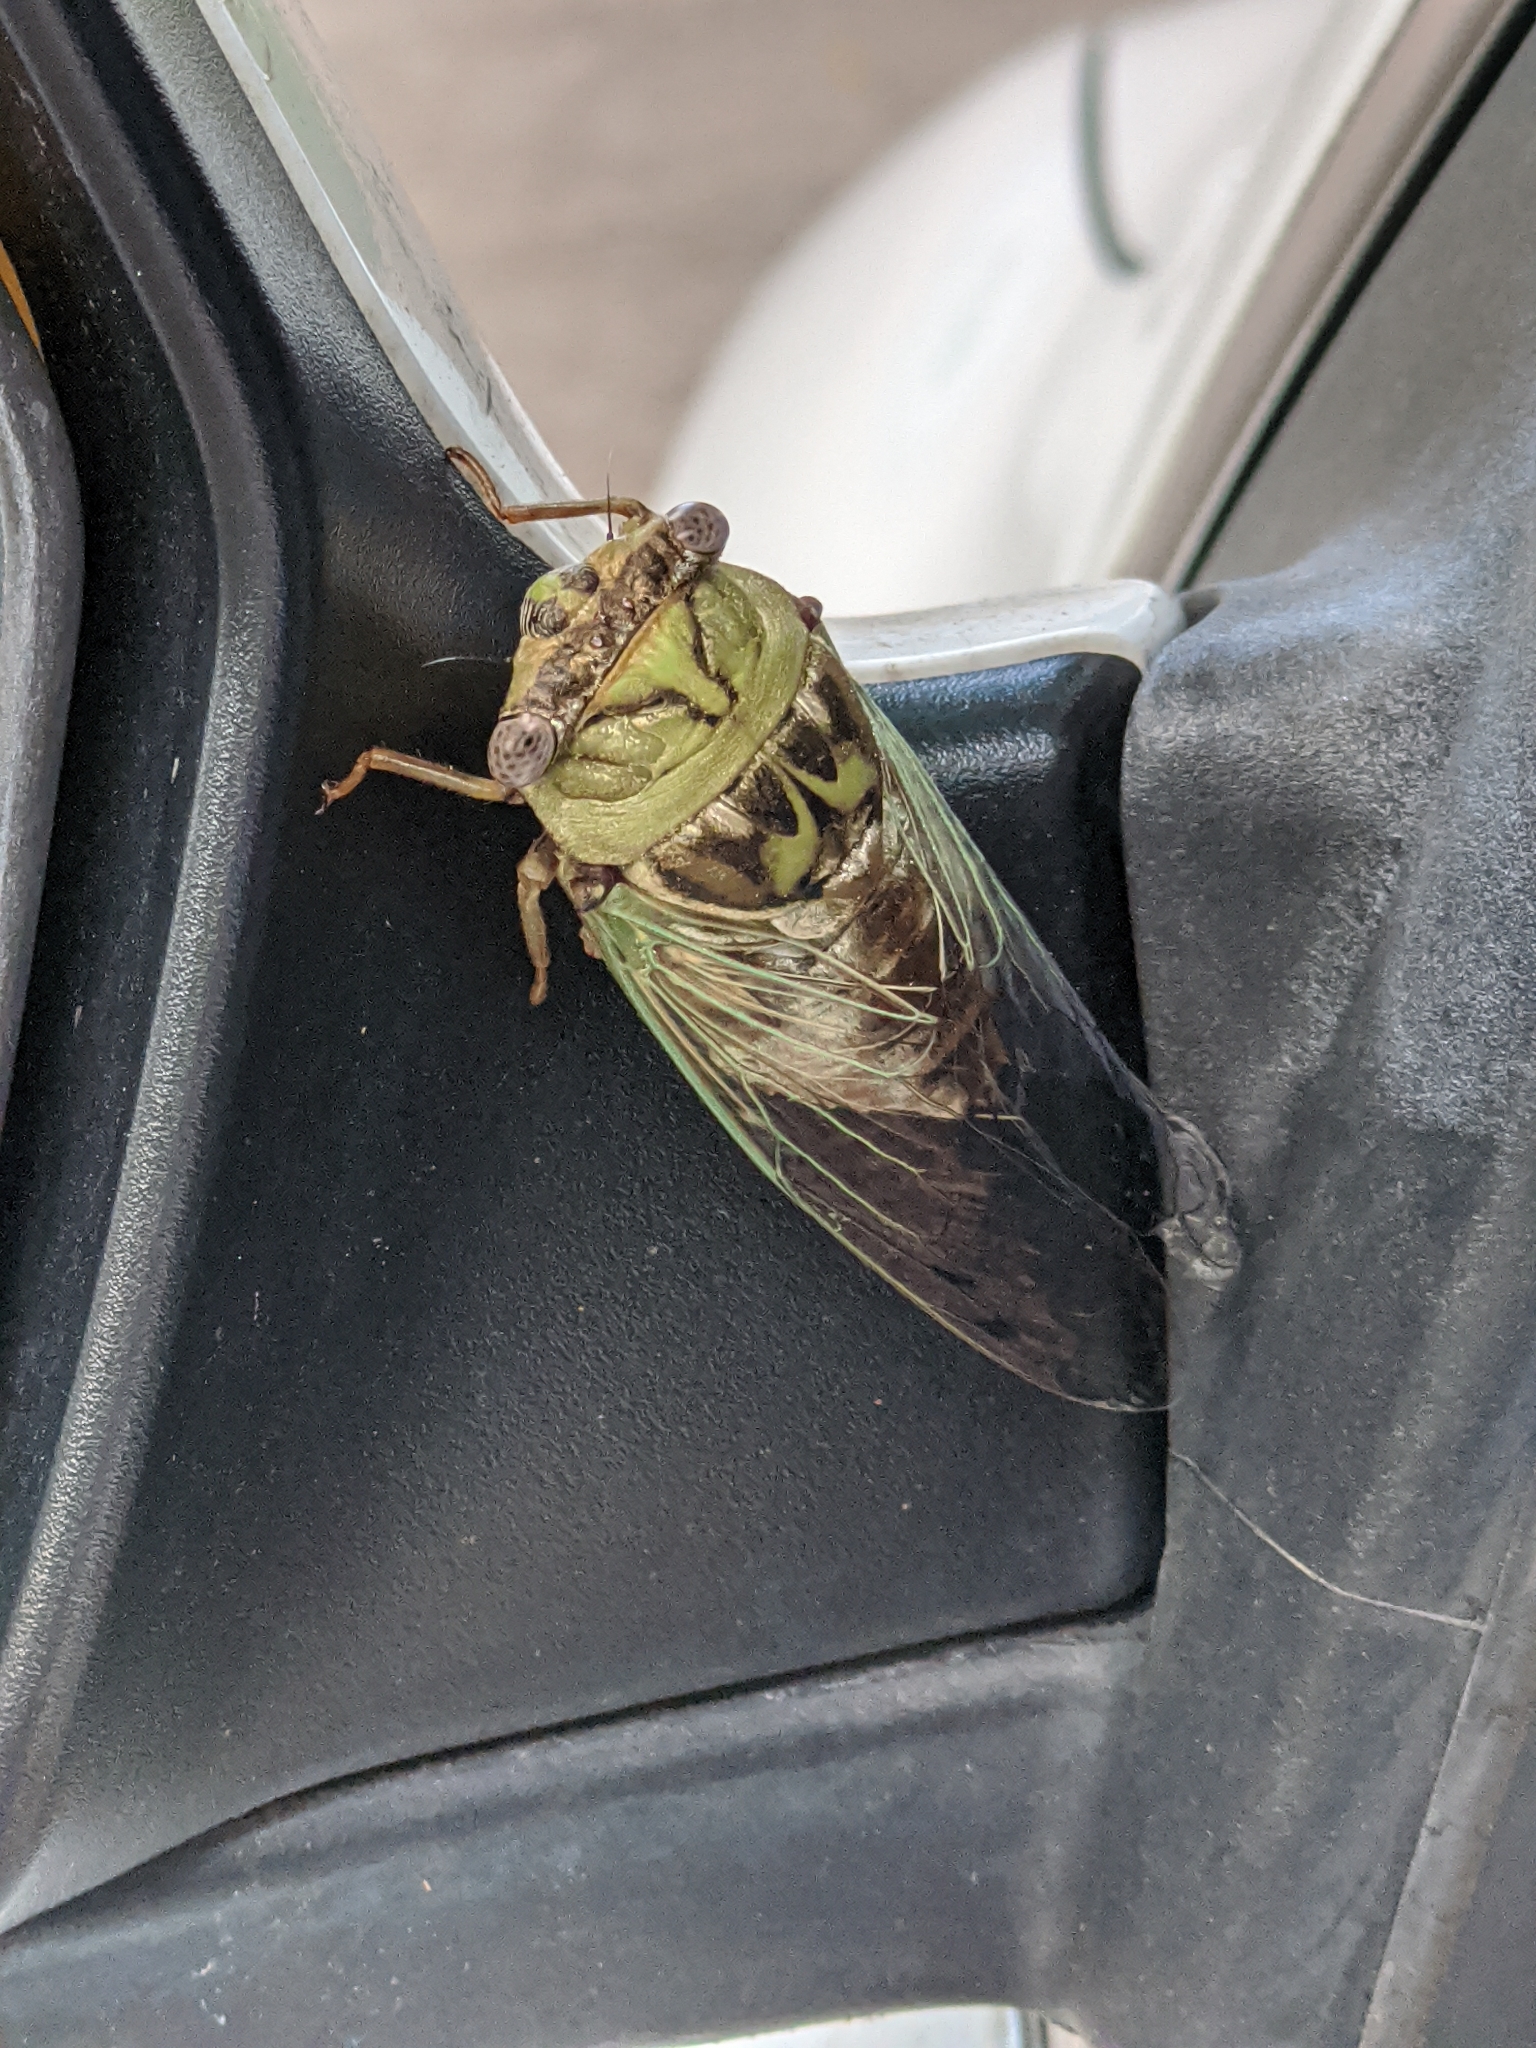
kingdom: Animalia
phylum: Arthropoda
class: Insecta
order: Hemiptera
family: Cicadidae
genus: Megatibicen
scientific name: Megatibicen resh
